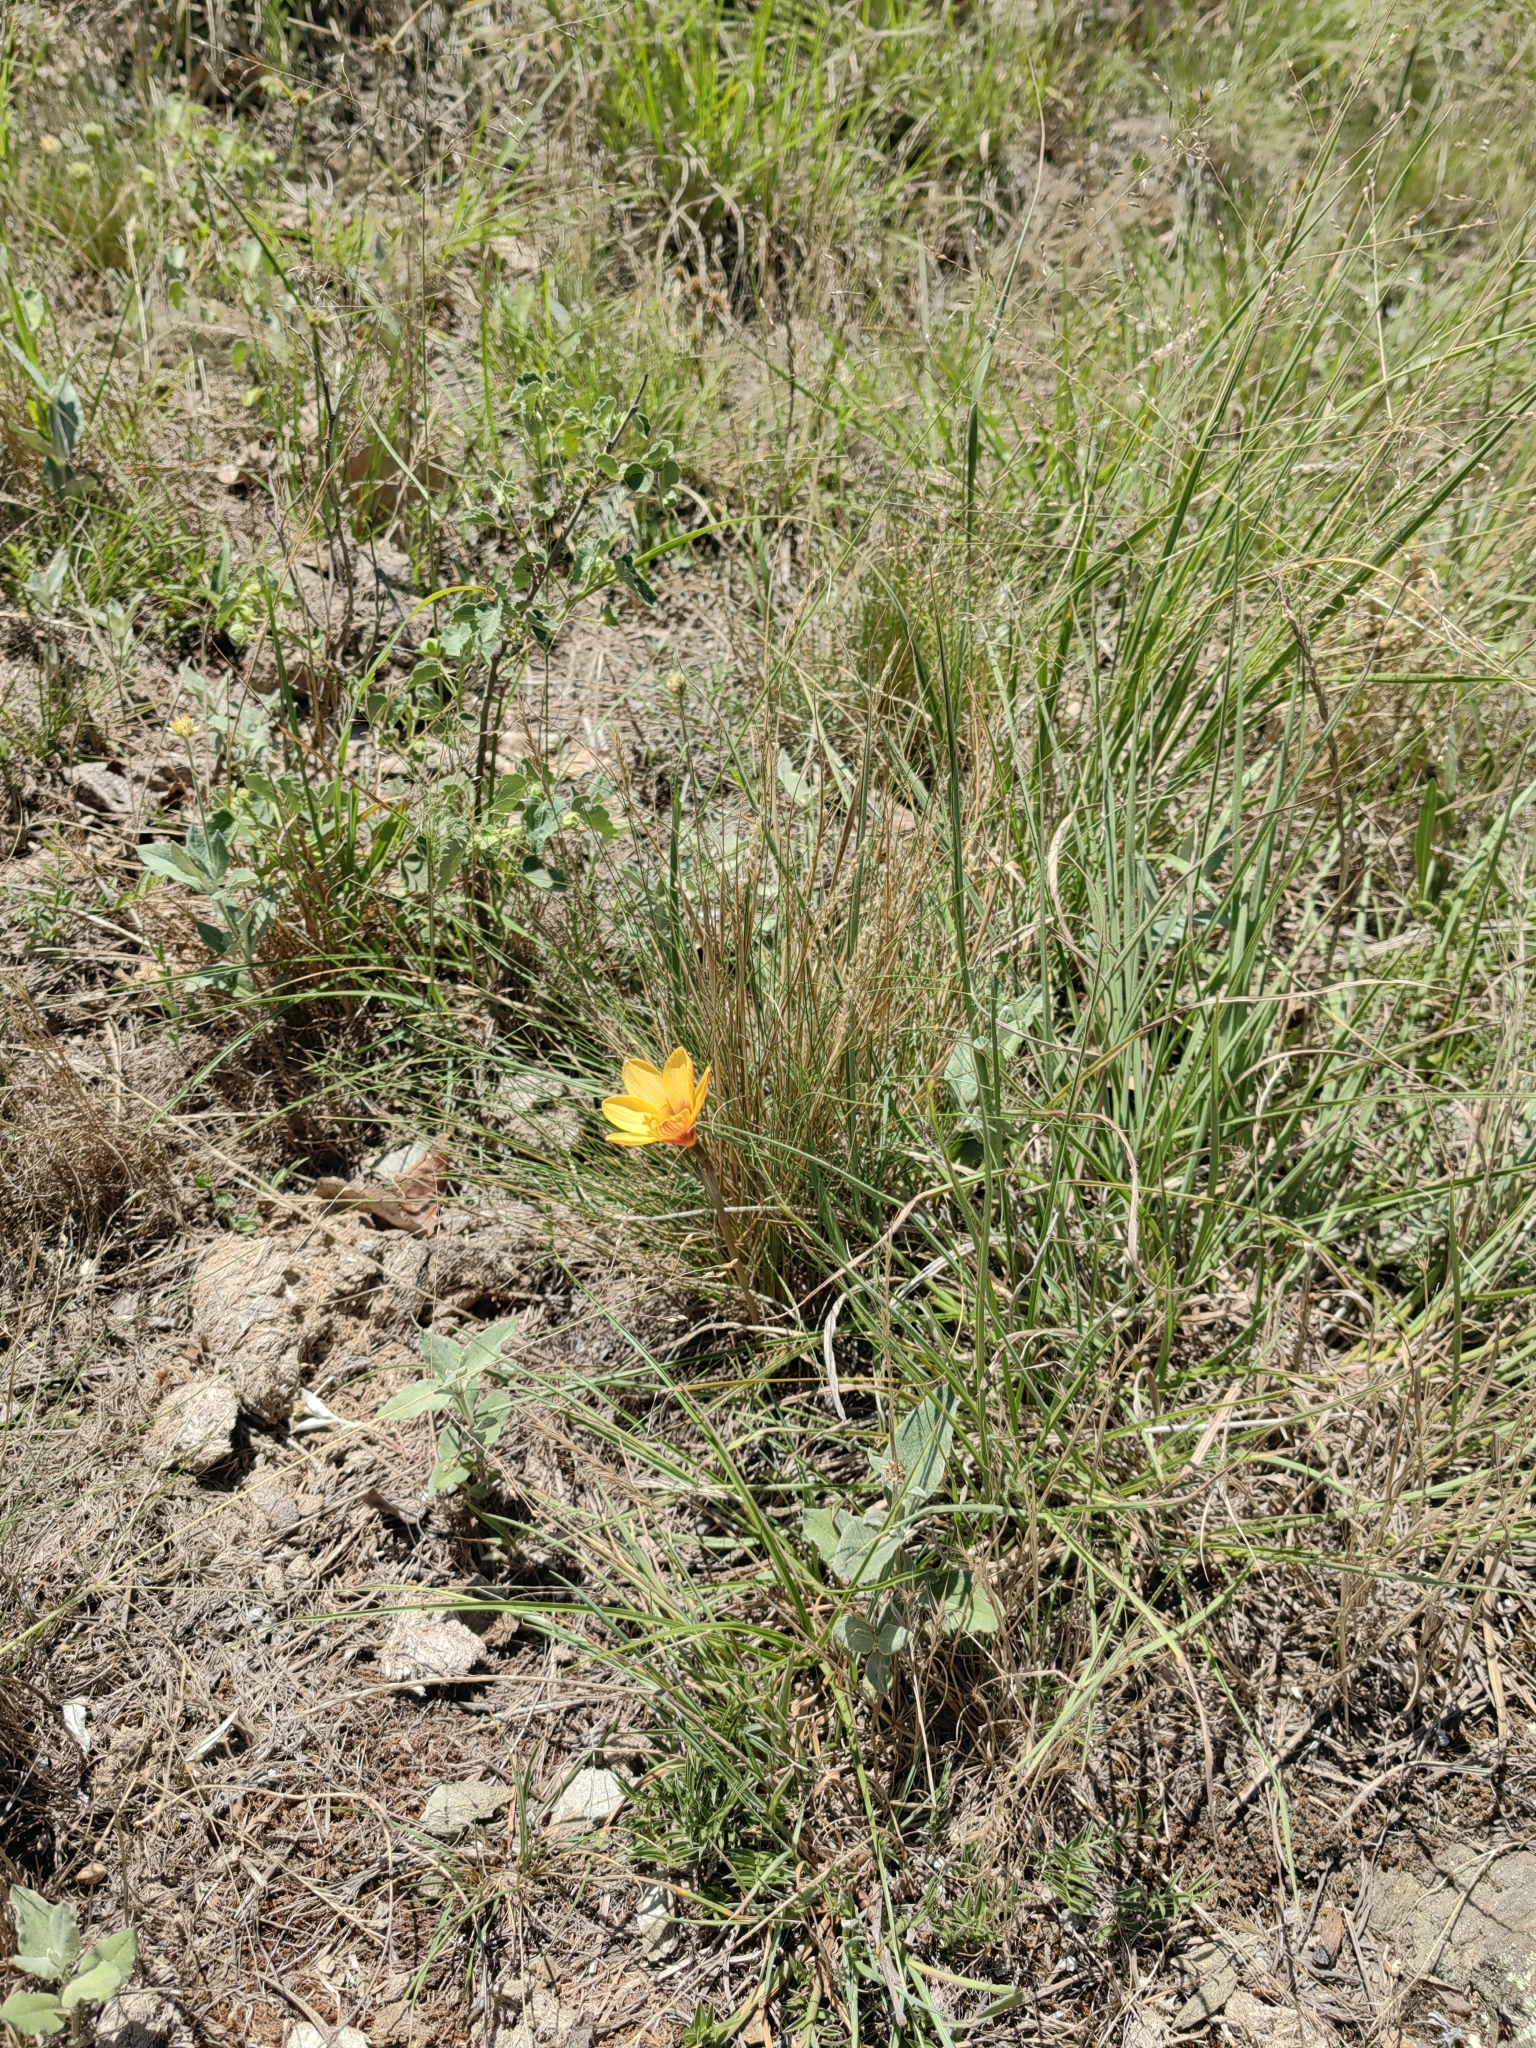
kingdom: Plantae
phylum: Tracheophyta
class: Liliopsida
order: Asparagales
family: Amaryllidaceae
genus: Zephyranthes
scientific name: Zephyranthes tubispatha
